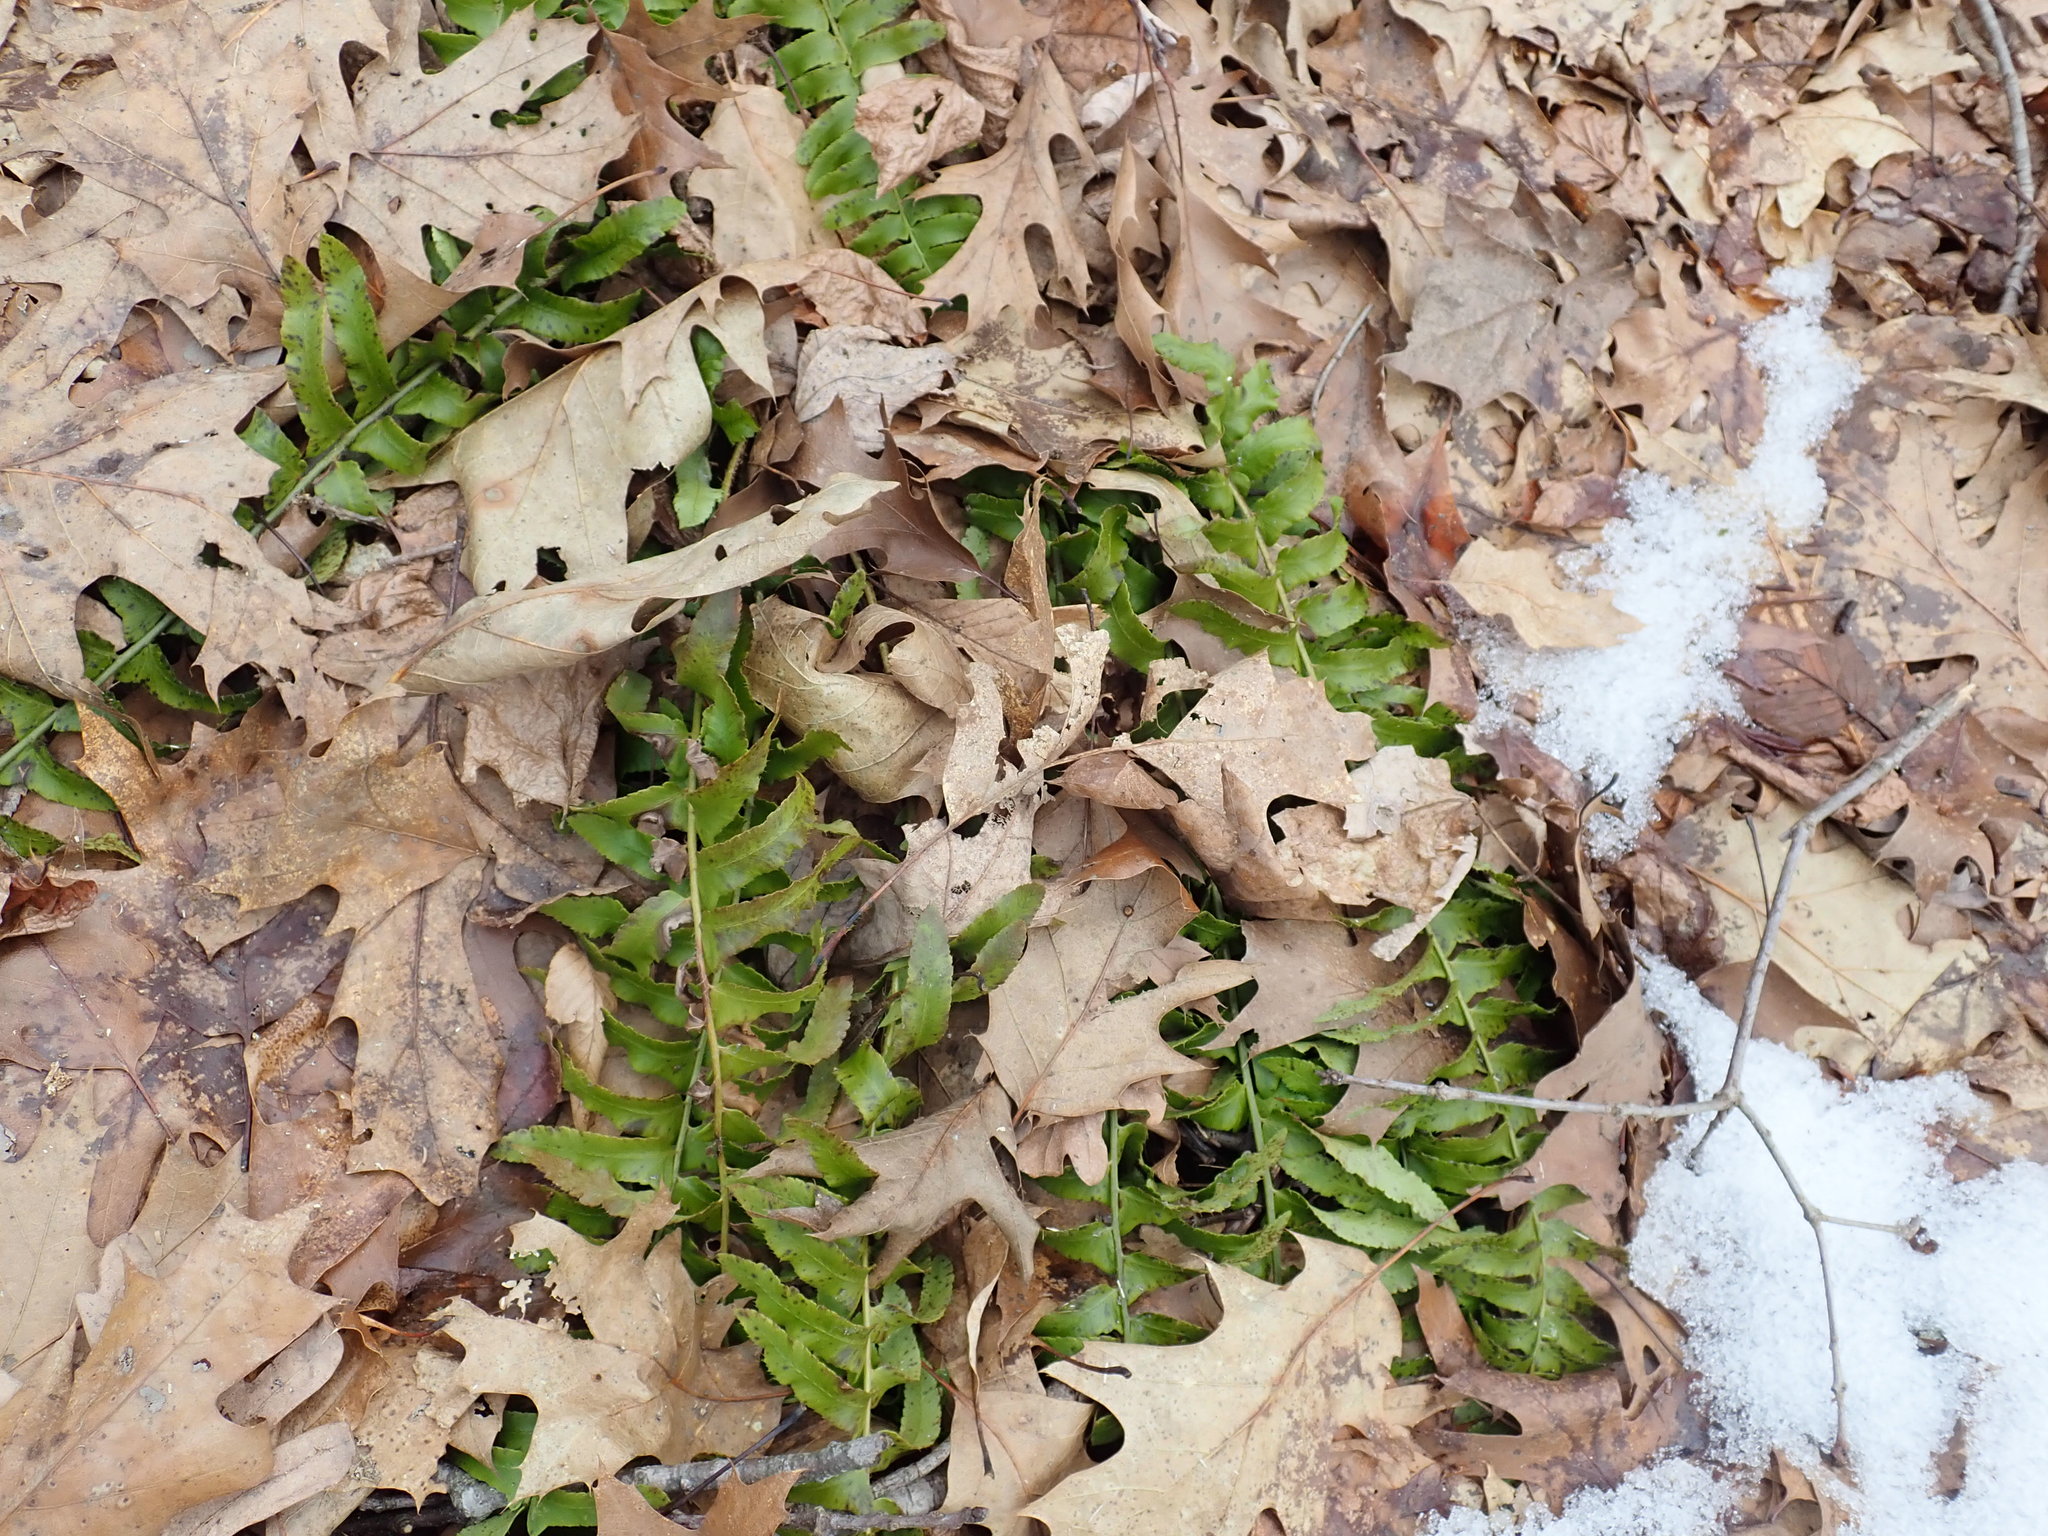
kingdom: Plantae
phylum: Tracheophyta
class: Polypodiopsida
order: Polypodiales
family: Dryopteridaceae
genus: Polystichum
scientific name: Polystichum acrostichoides
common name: Christmas fern
